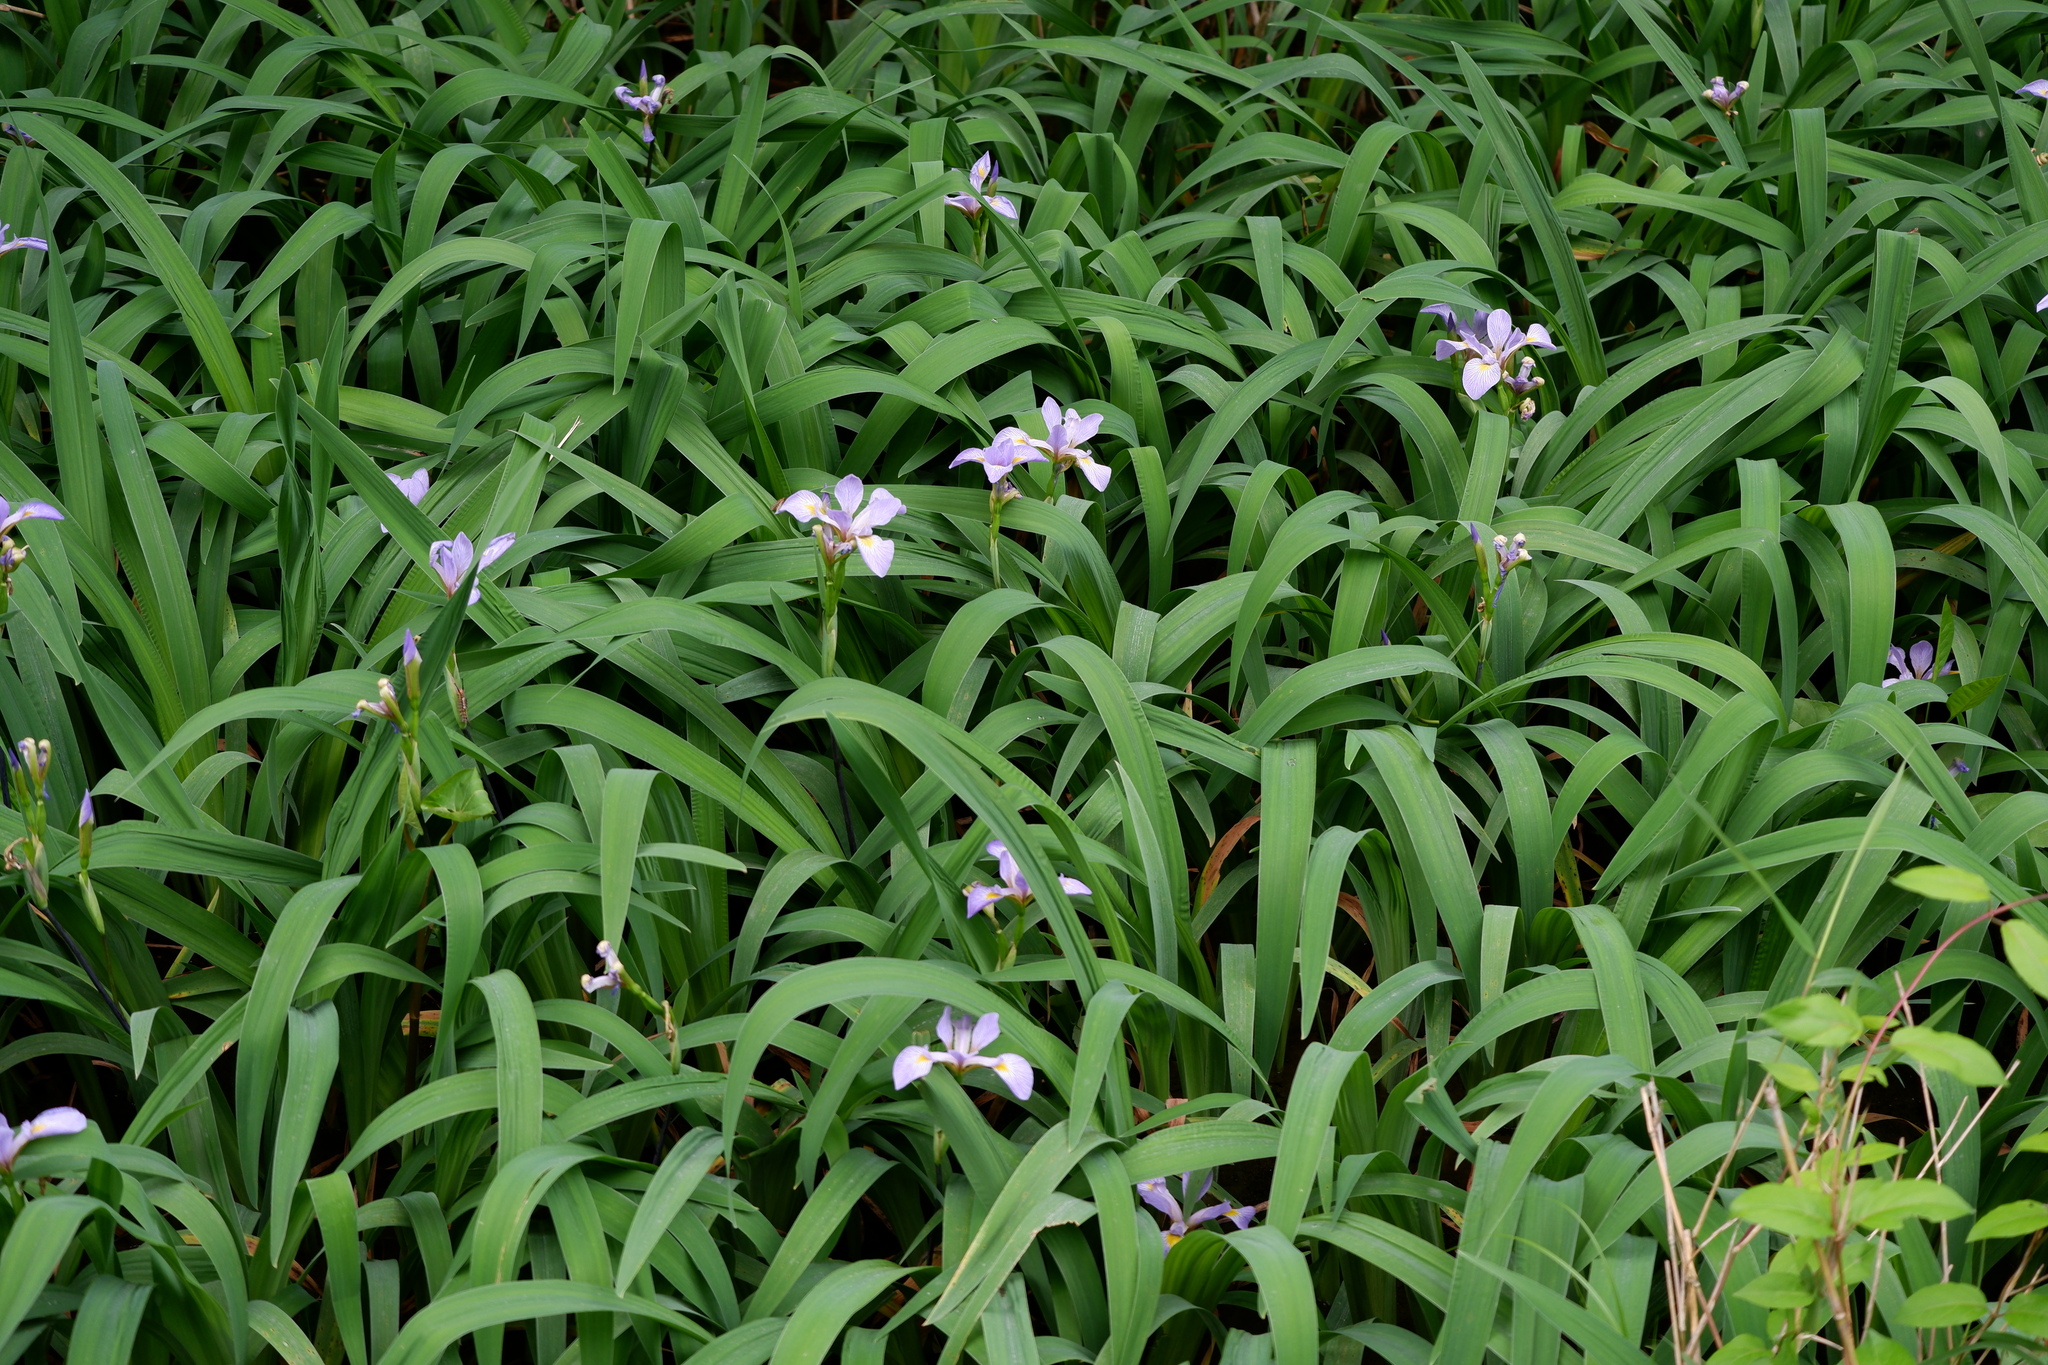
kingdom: Plantae
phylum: Tracheophyta
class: Liliopsida
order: Asparagales
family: Iridaceae
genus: Iris
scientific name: Iris virginica
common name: Southern blue flag
